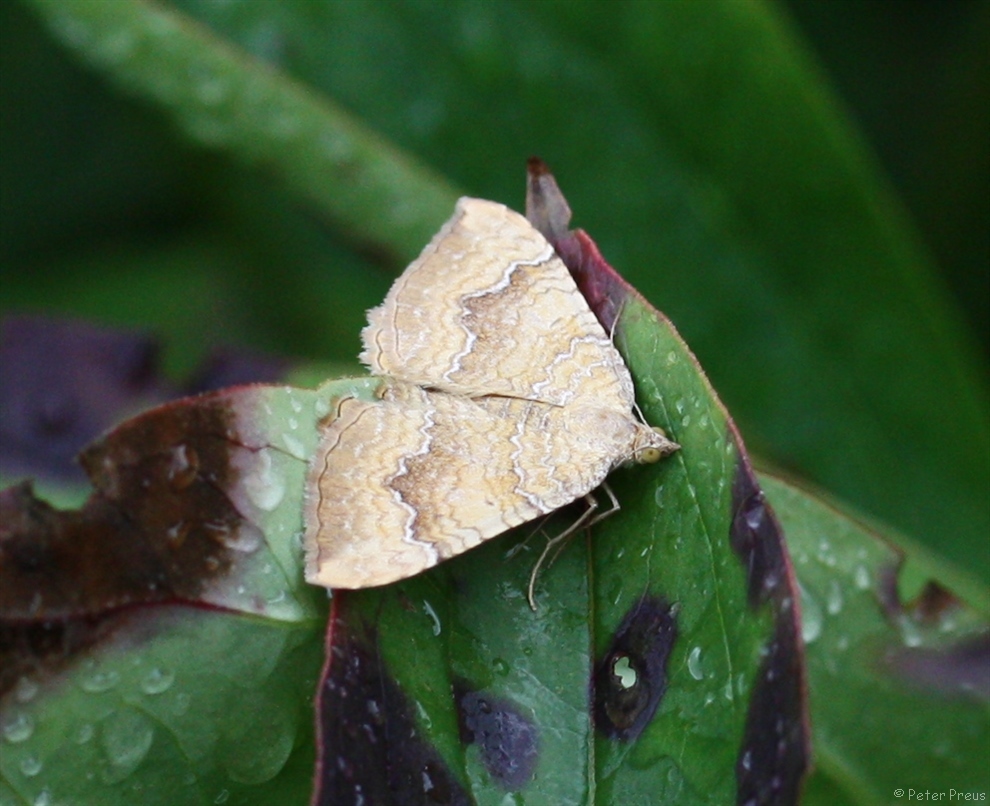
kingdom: Animalia
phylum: Arthropoda
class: Insecta
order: Lepidoptera
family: Geometridae
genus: Camptogramma
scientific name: Camptogramma bilineata
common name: Yellow shell
